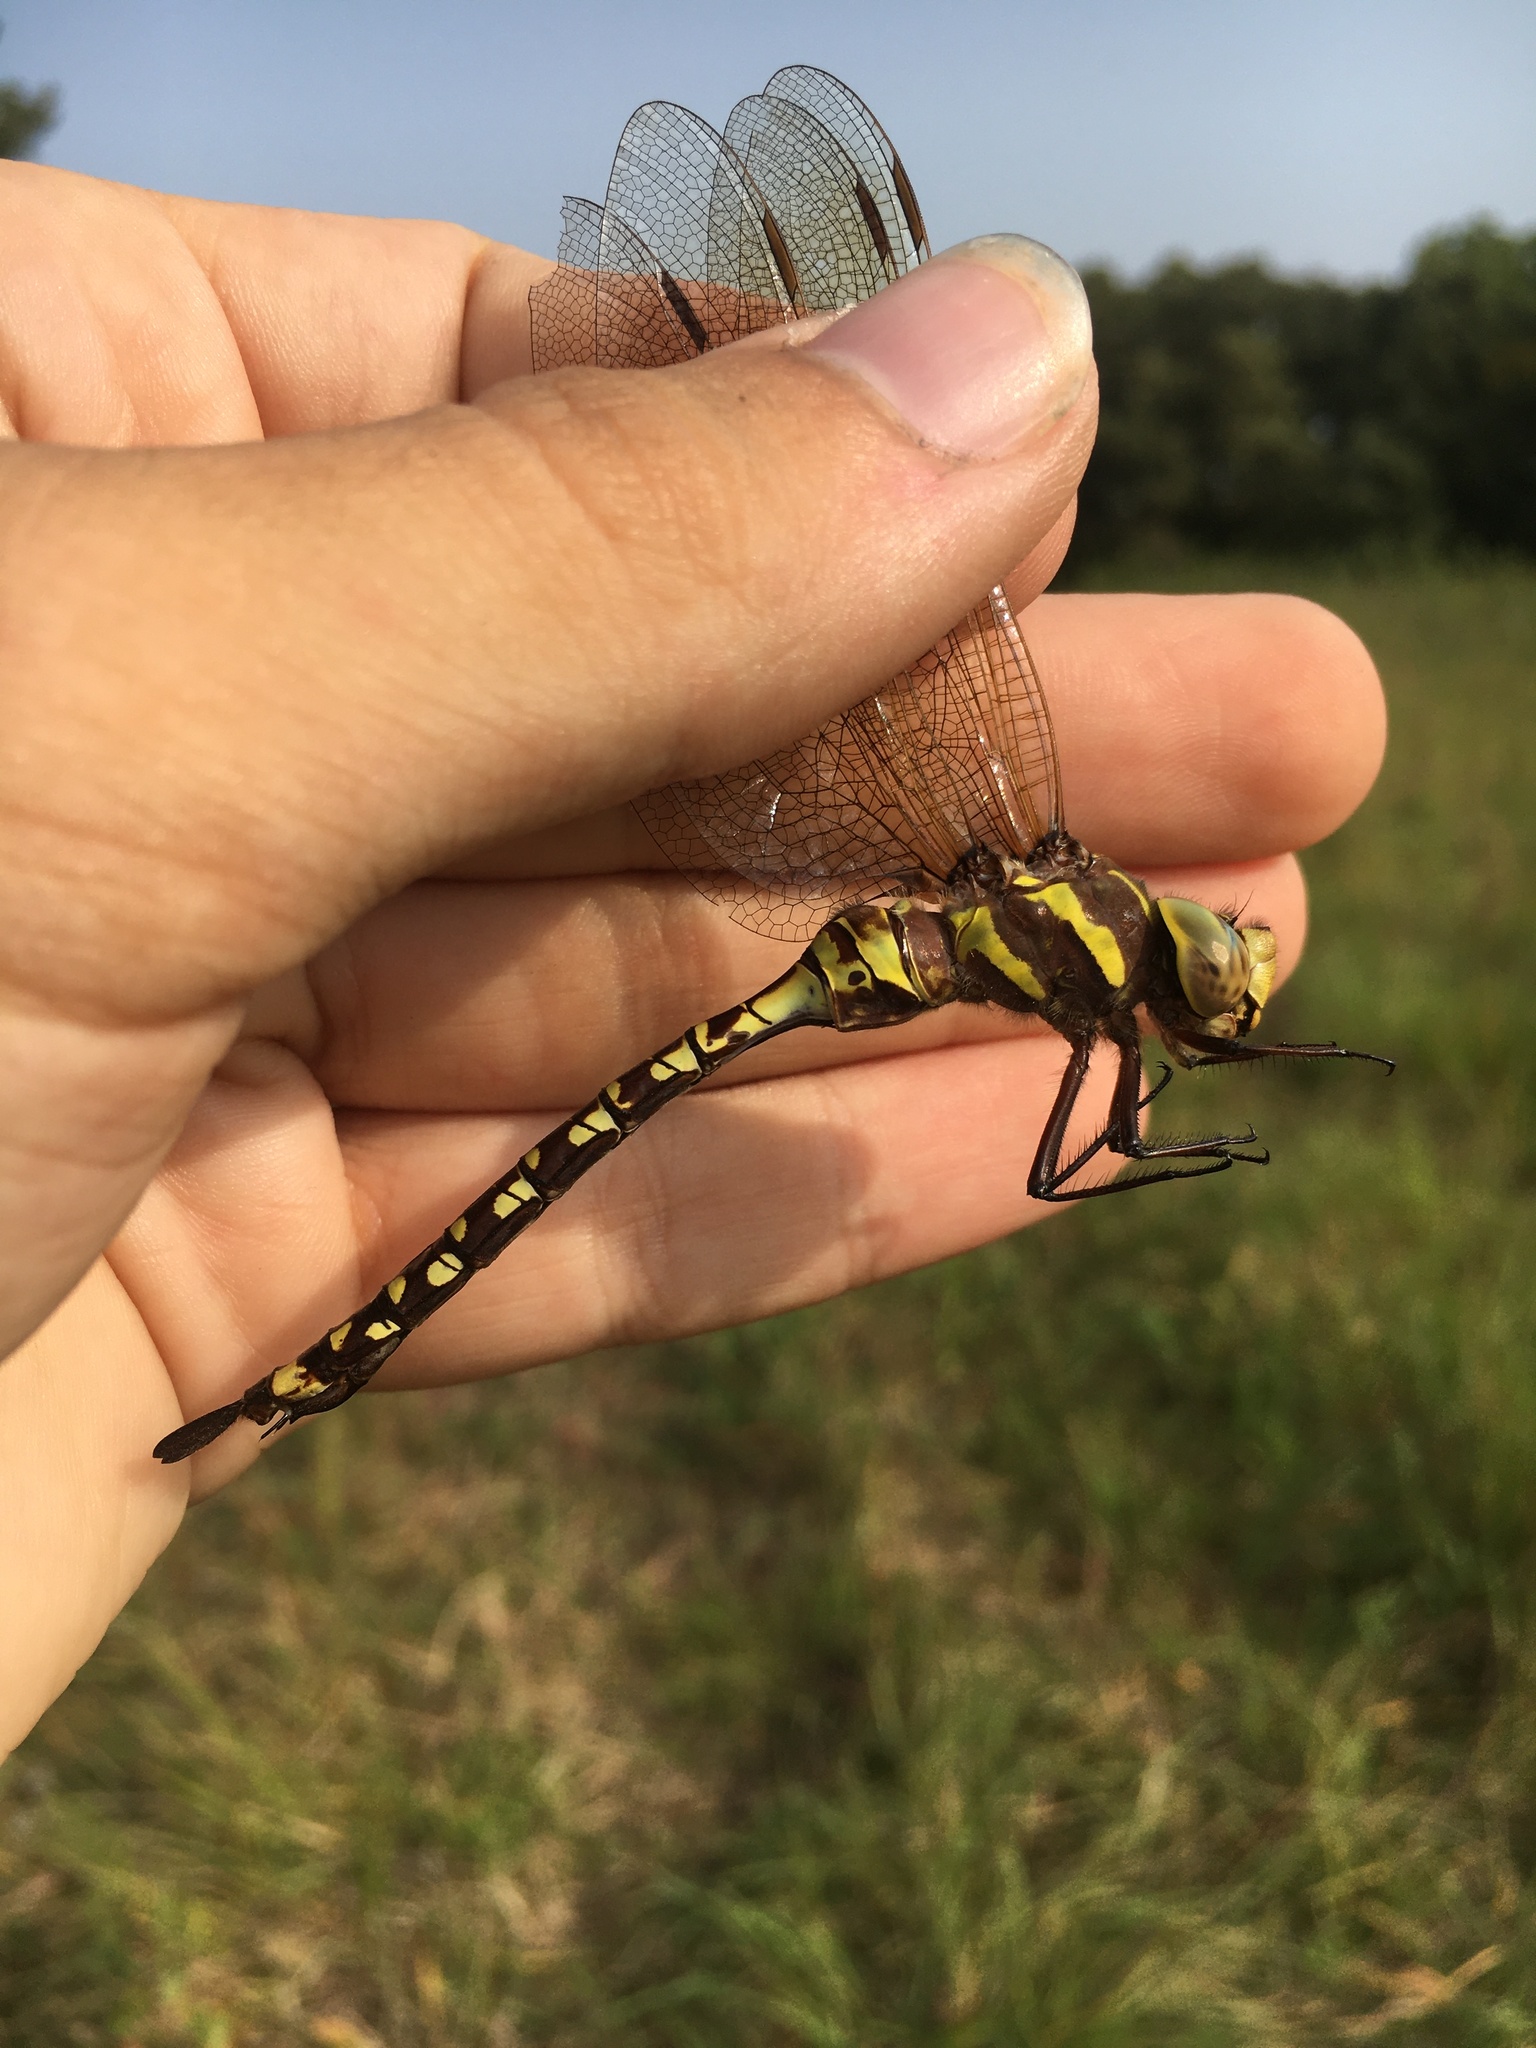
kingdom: Animalia
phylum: Arthropoda
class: Insecta
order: Odonata
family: Aeshnidae
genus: Aeshna
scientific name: Aeshna constricta
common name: Lance-tipped darner
